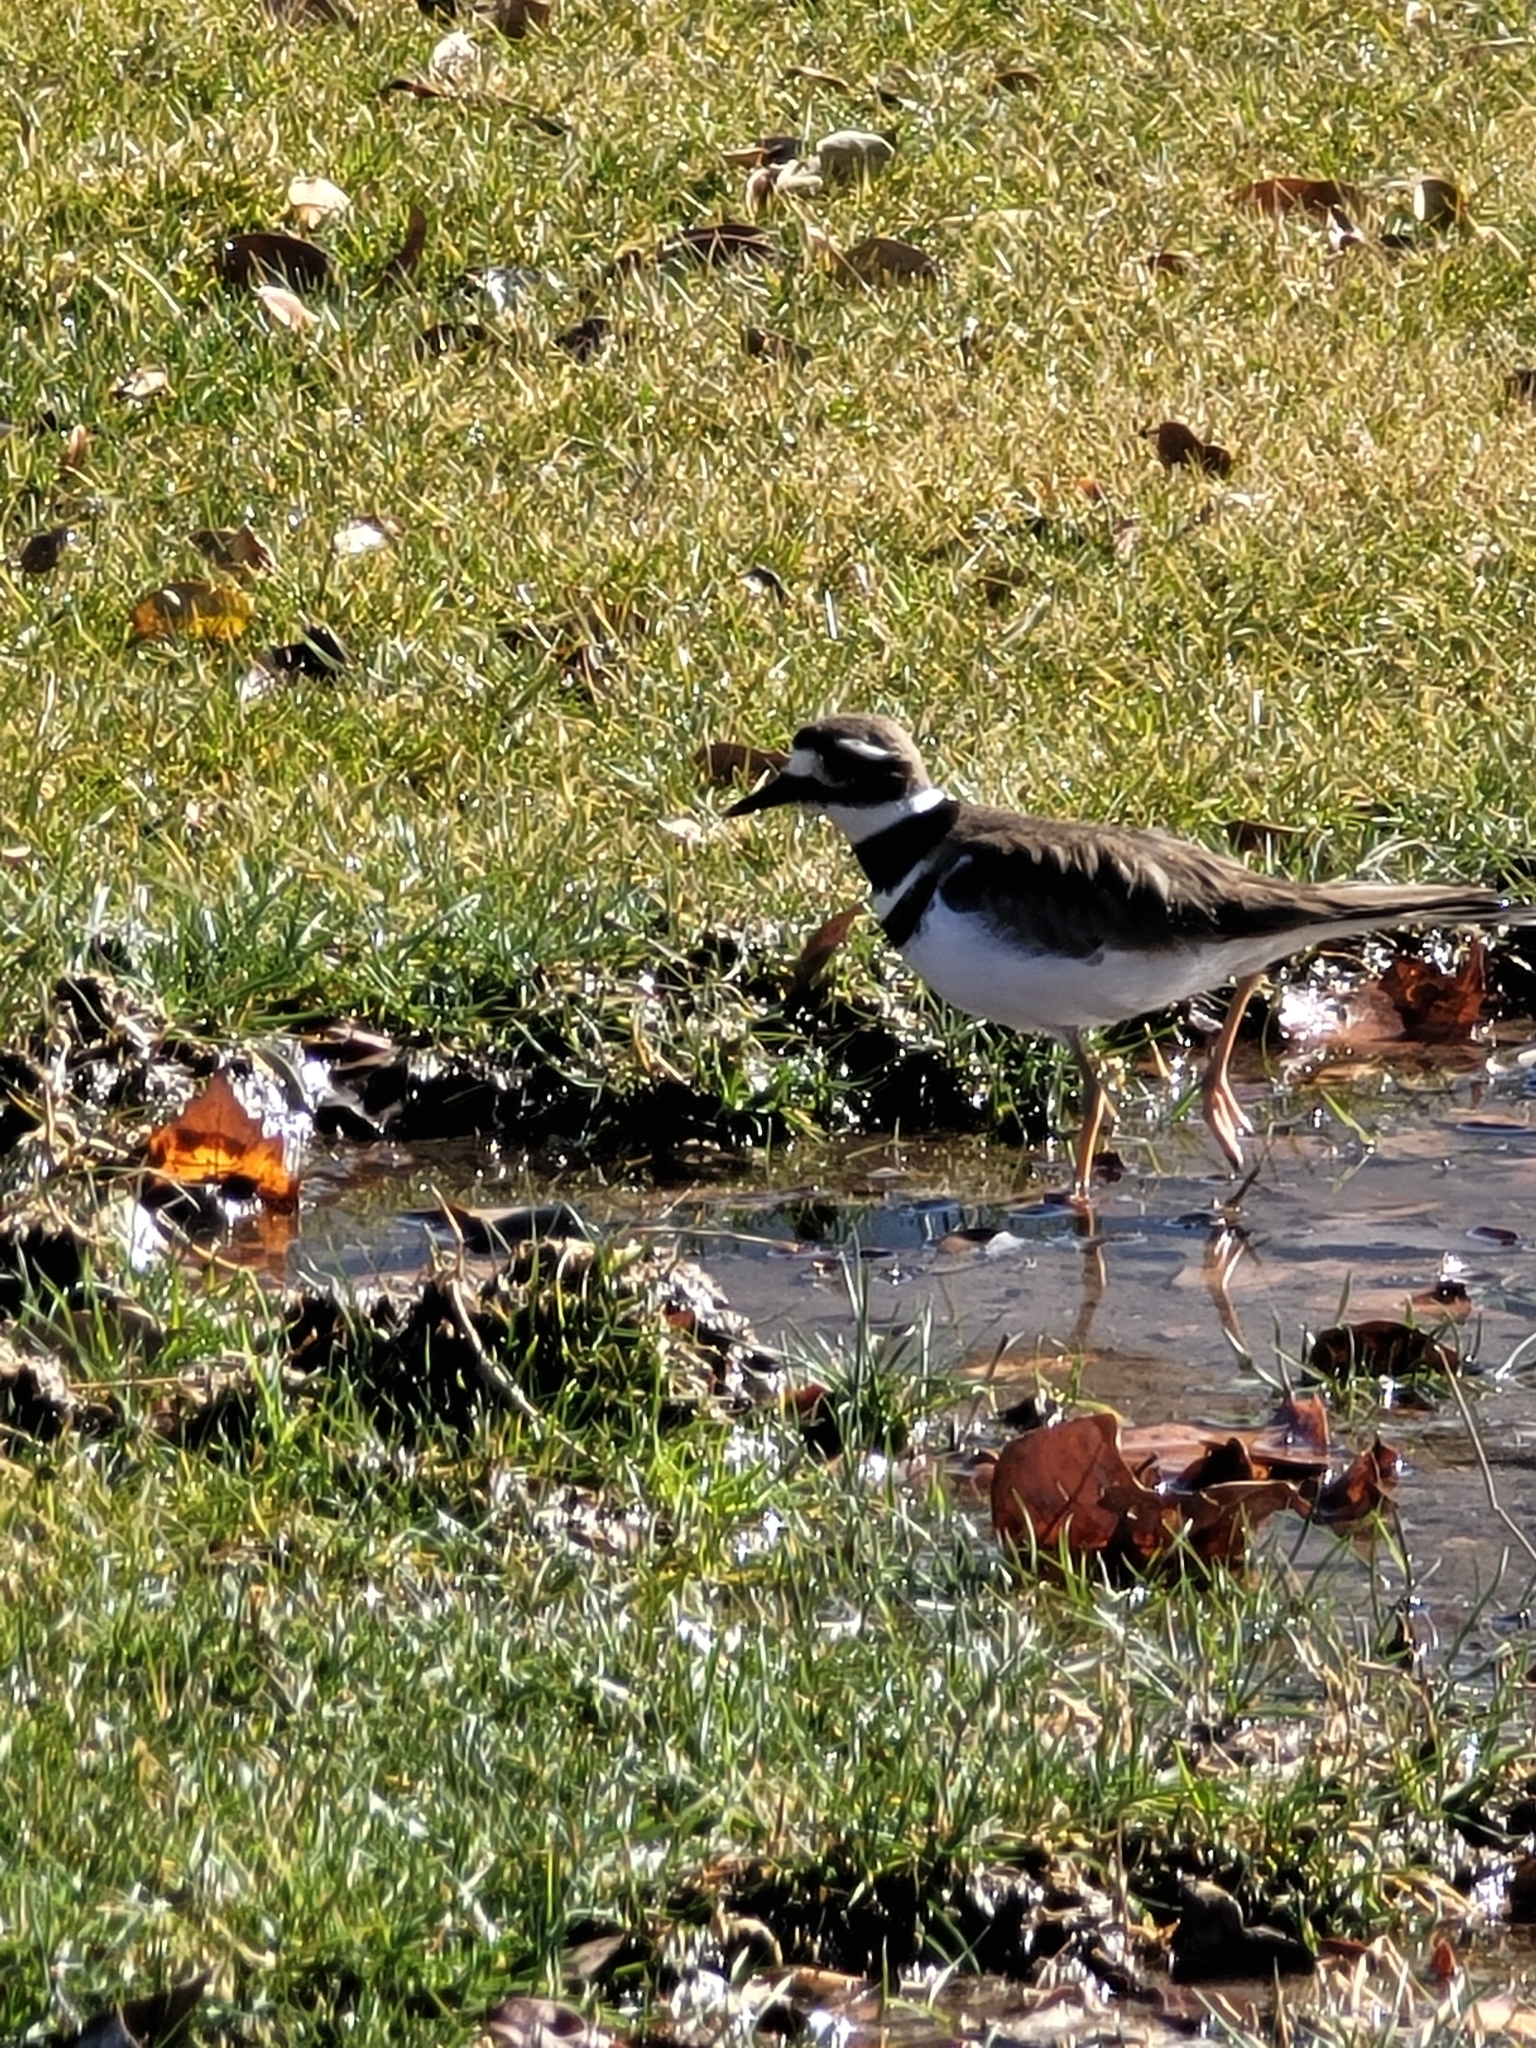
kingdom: Animalia
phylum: Chordata
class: Aves
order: Charadriiformes
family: Charadriidae
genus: Charadrius
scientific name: Charadrius vociferus
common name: Killdeer
